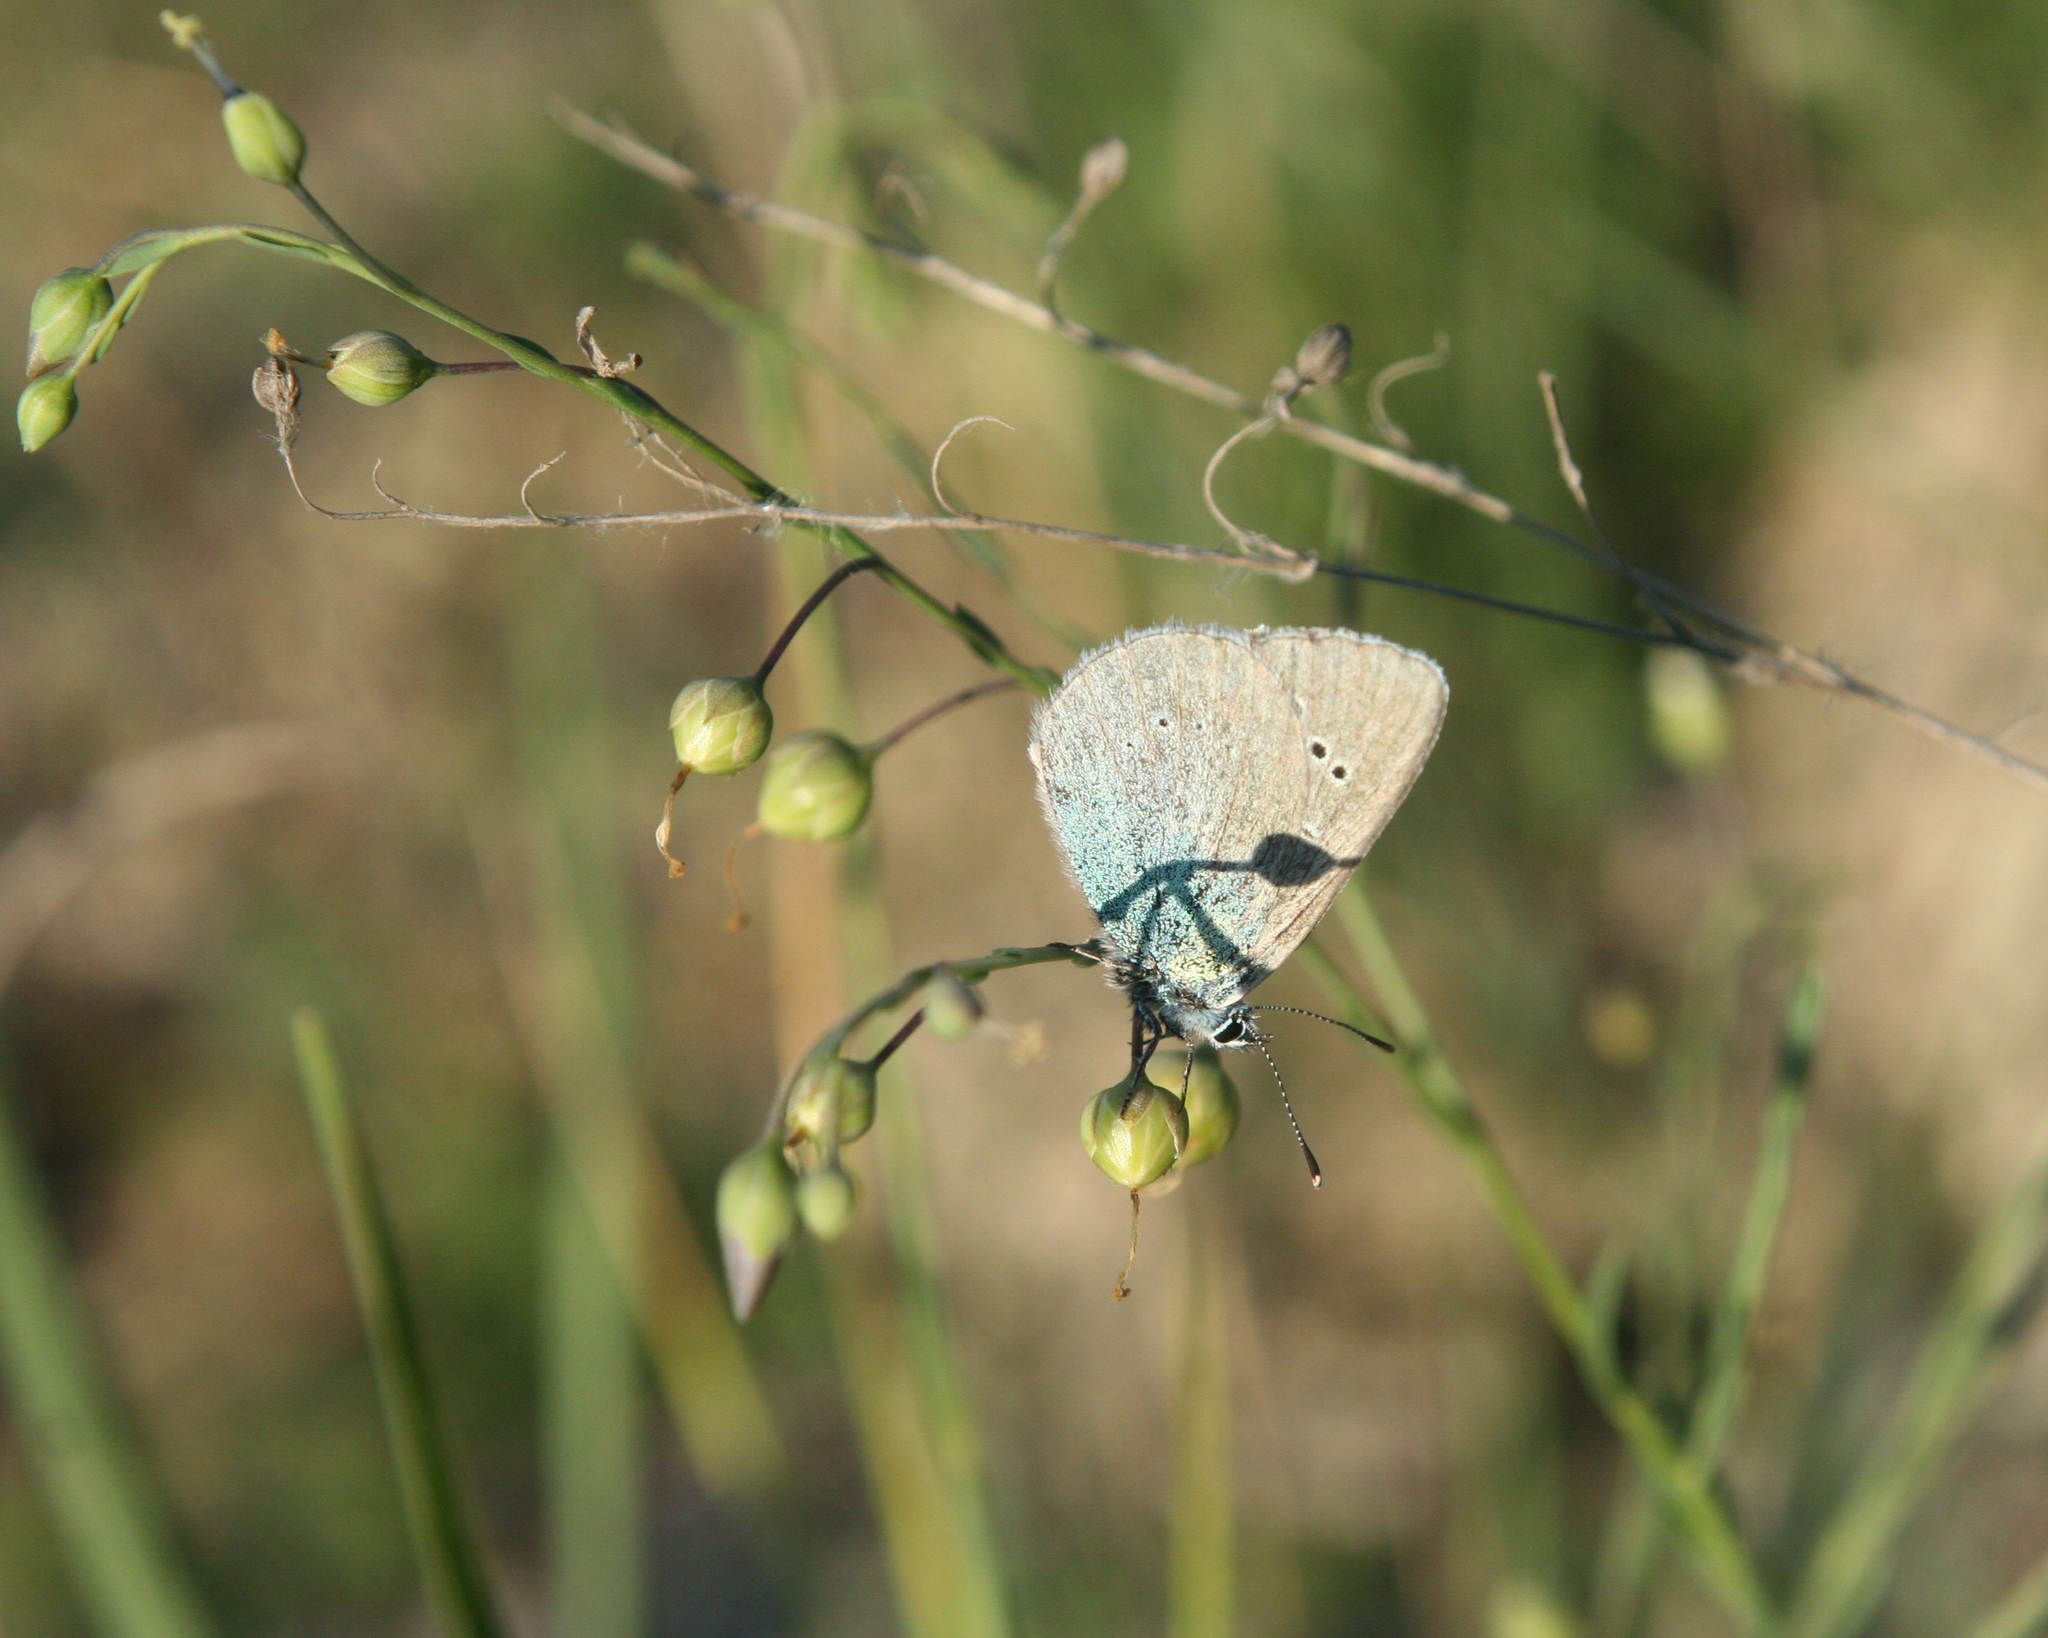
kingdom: Plantae
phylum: Tracheophyta
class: Magnoliopsida
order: Malpighiales
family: Linaceae
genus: Linum
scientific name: Linum austriacum
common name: Austrian flax
